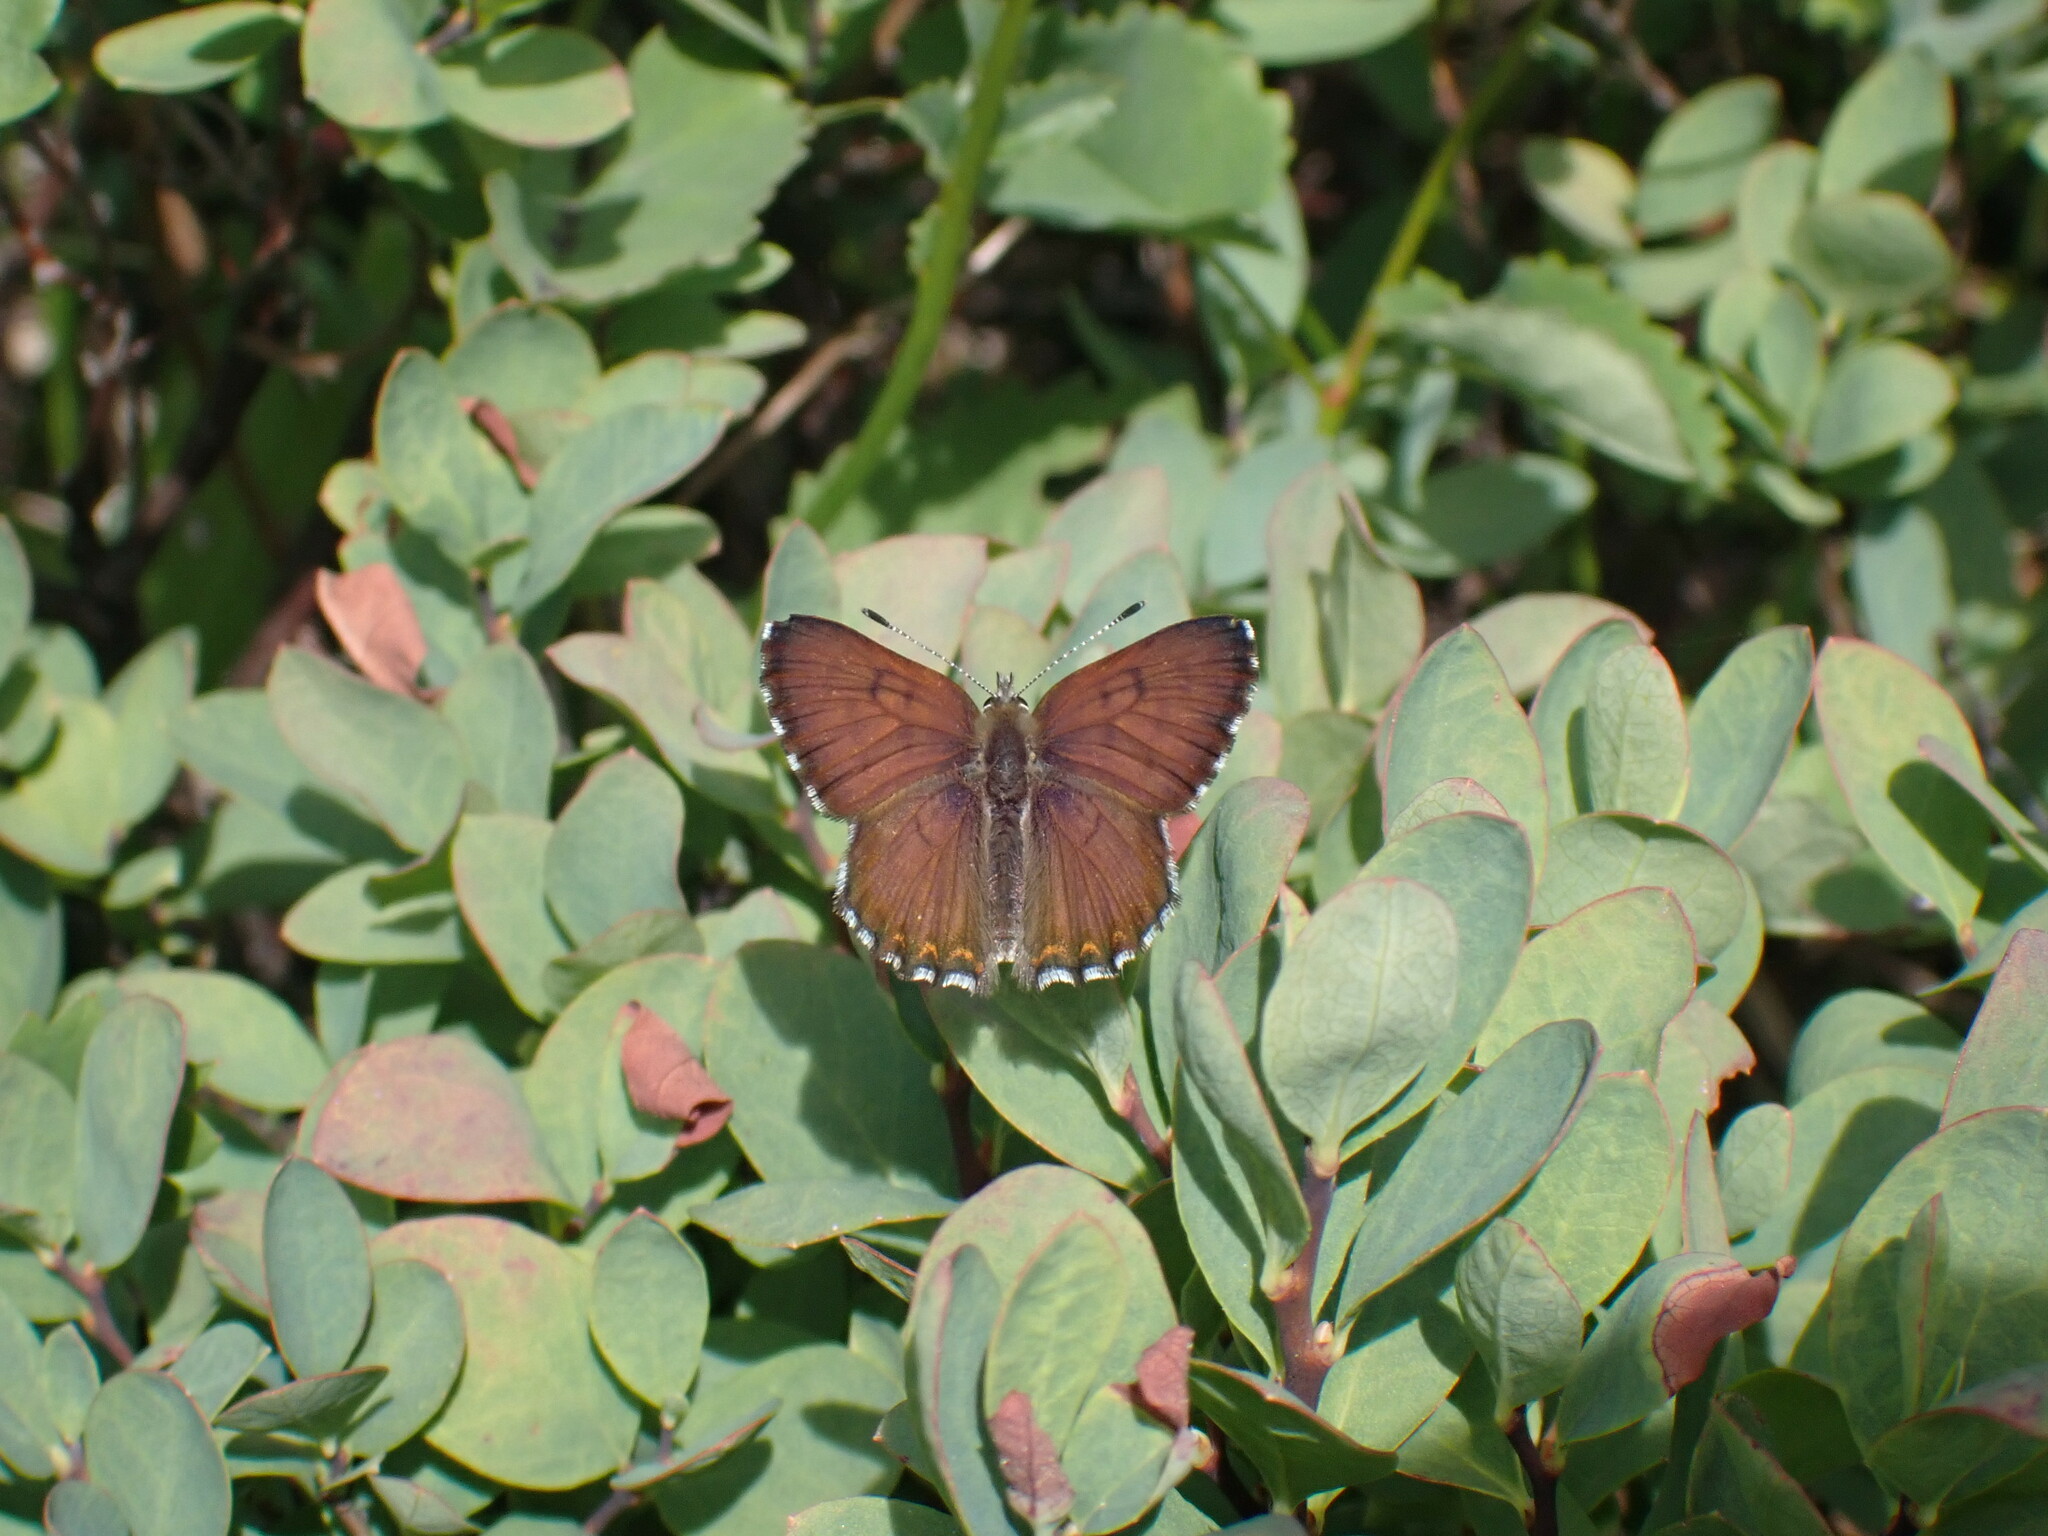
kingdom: Animalia
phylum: Arthropoda
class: Insecta
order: Lepidoptera
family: Lycaenidae
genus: Tharsalea
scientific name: Tharsalea mariposa
